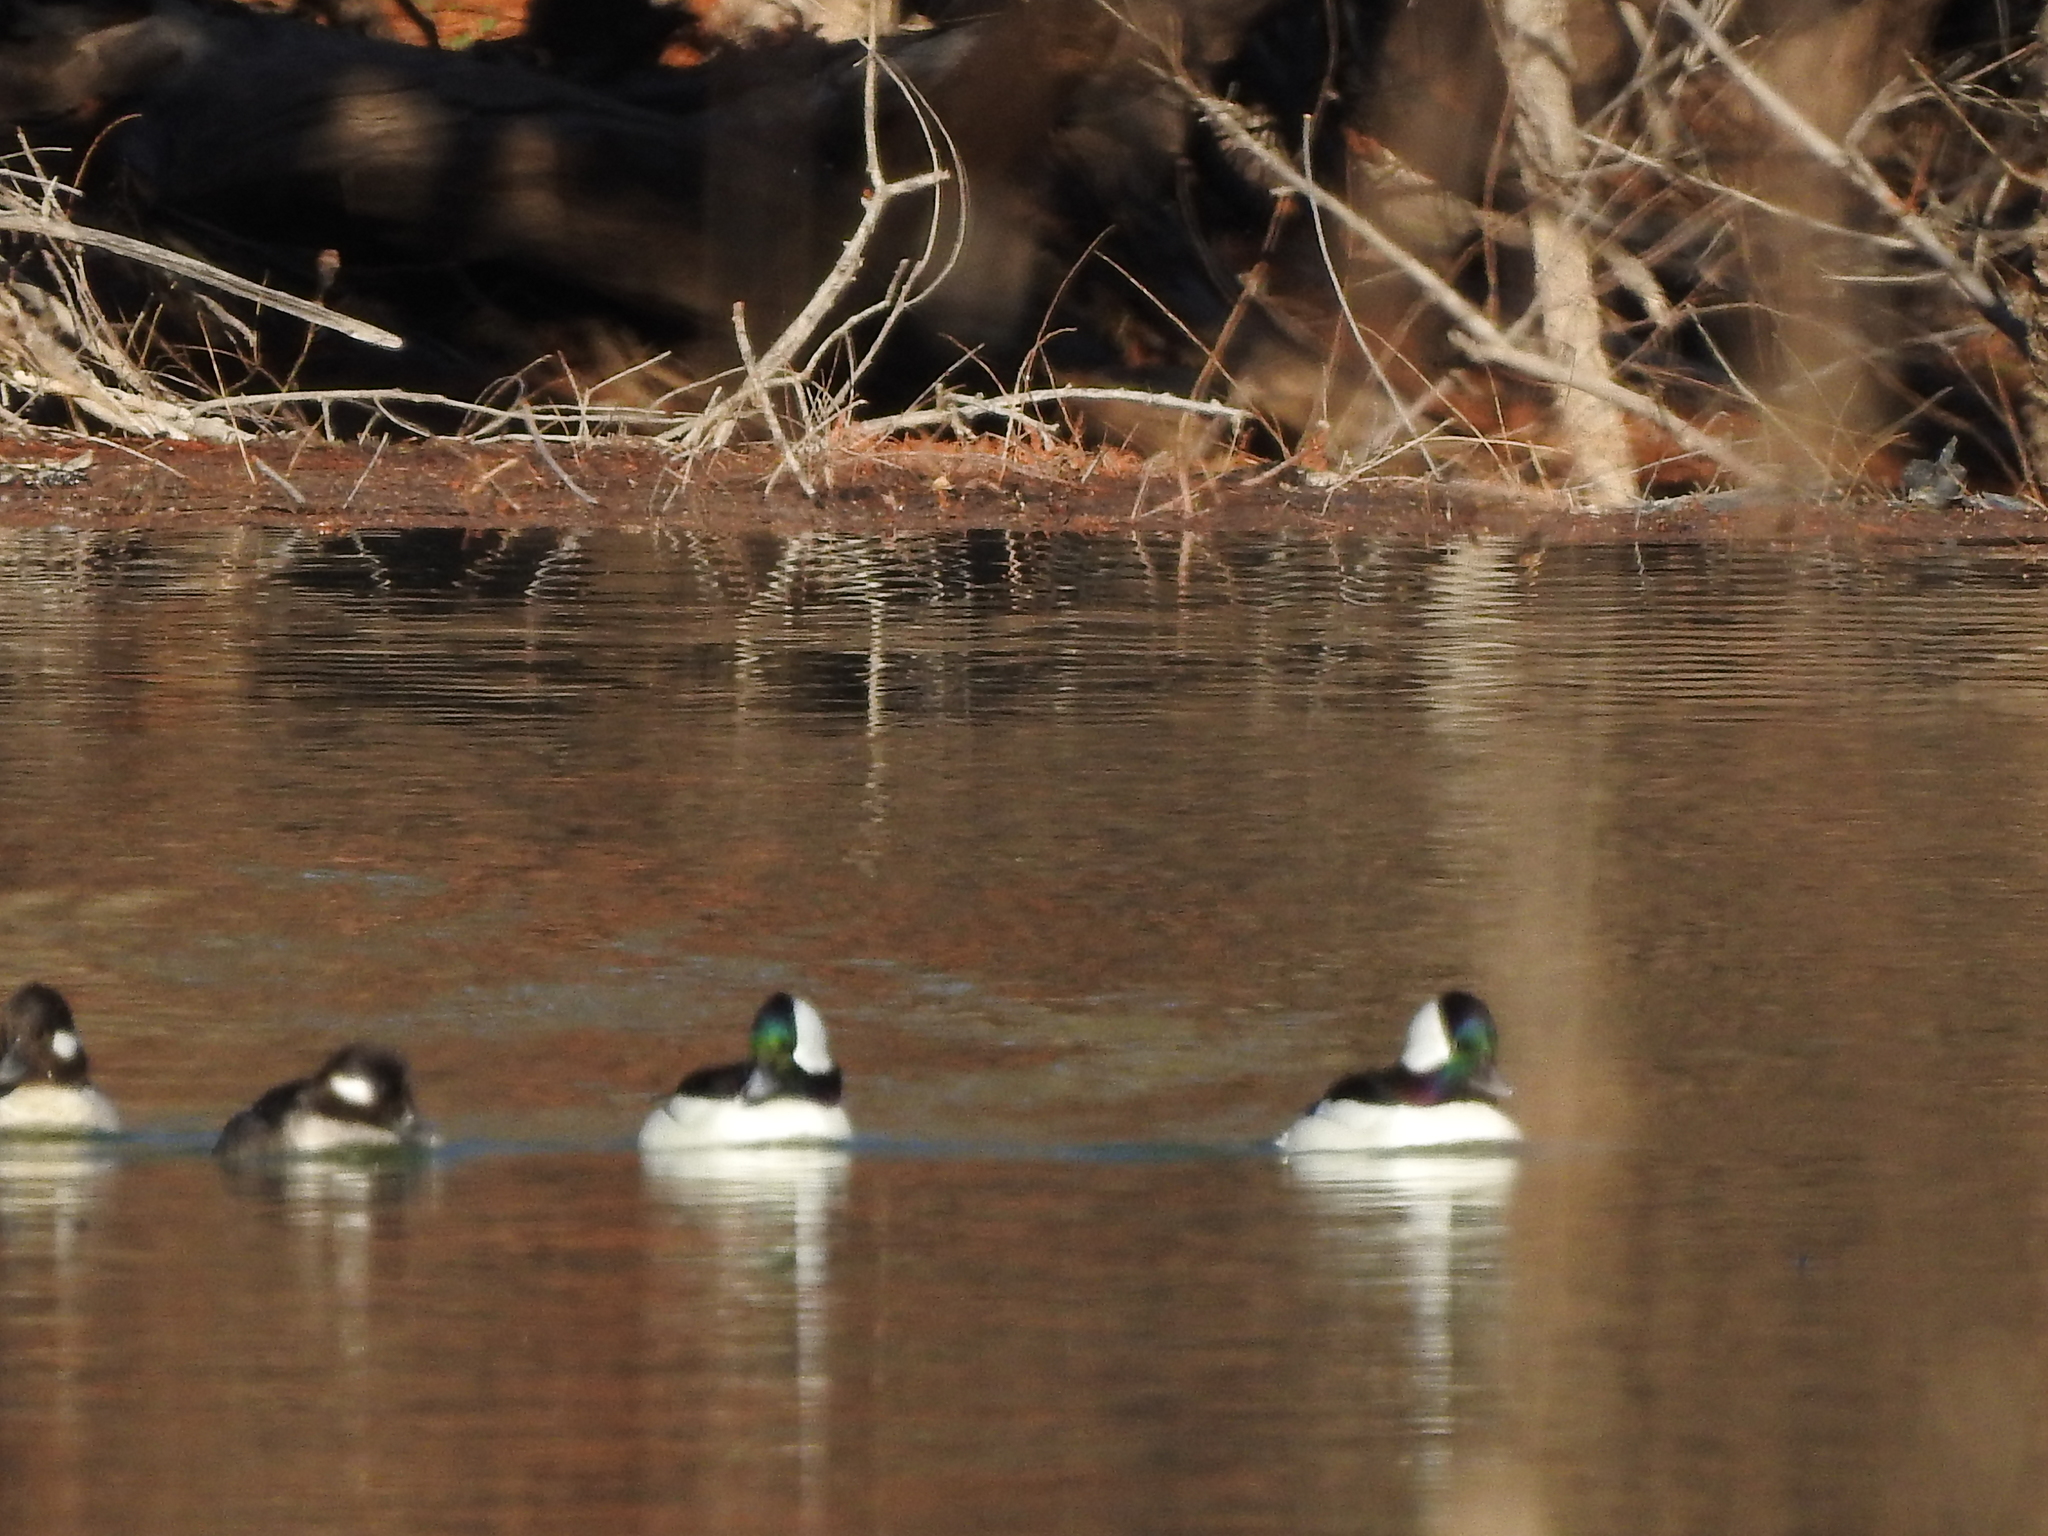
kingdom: Animalia
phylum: Chordata
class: Aves
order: Anseriformes
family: Anatidae
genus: Bucephala
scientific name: Bucephala albeola
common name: Bufflehead
